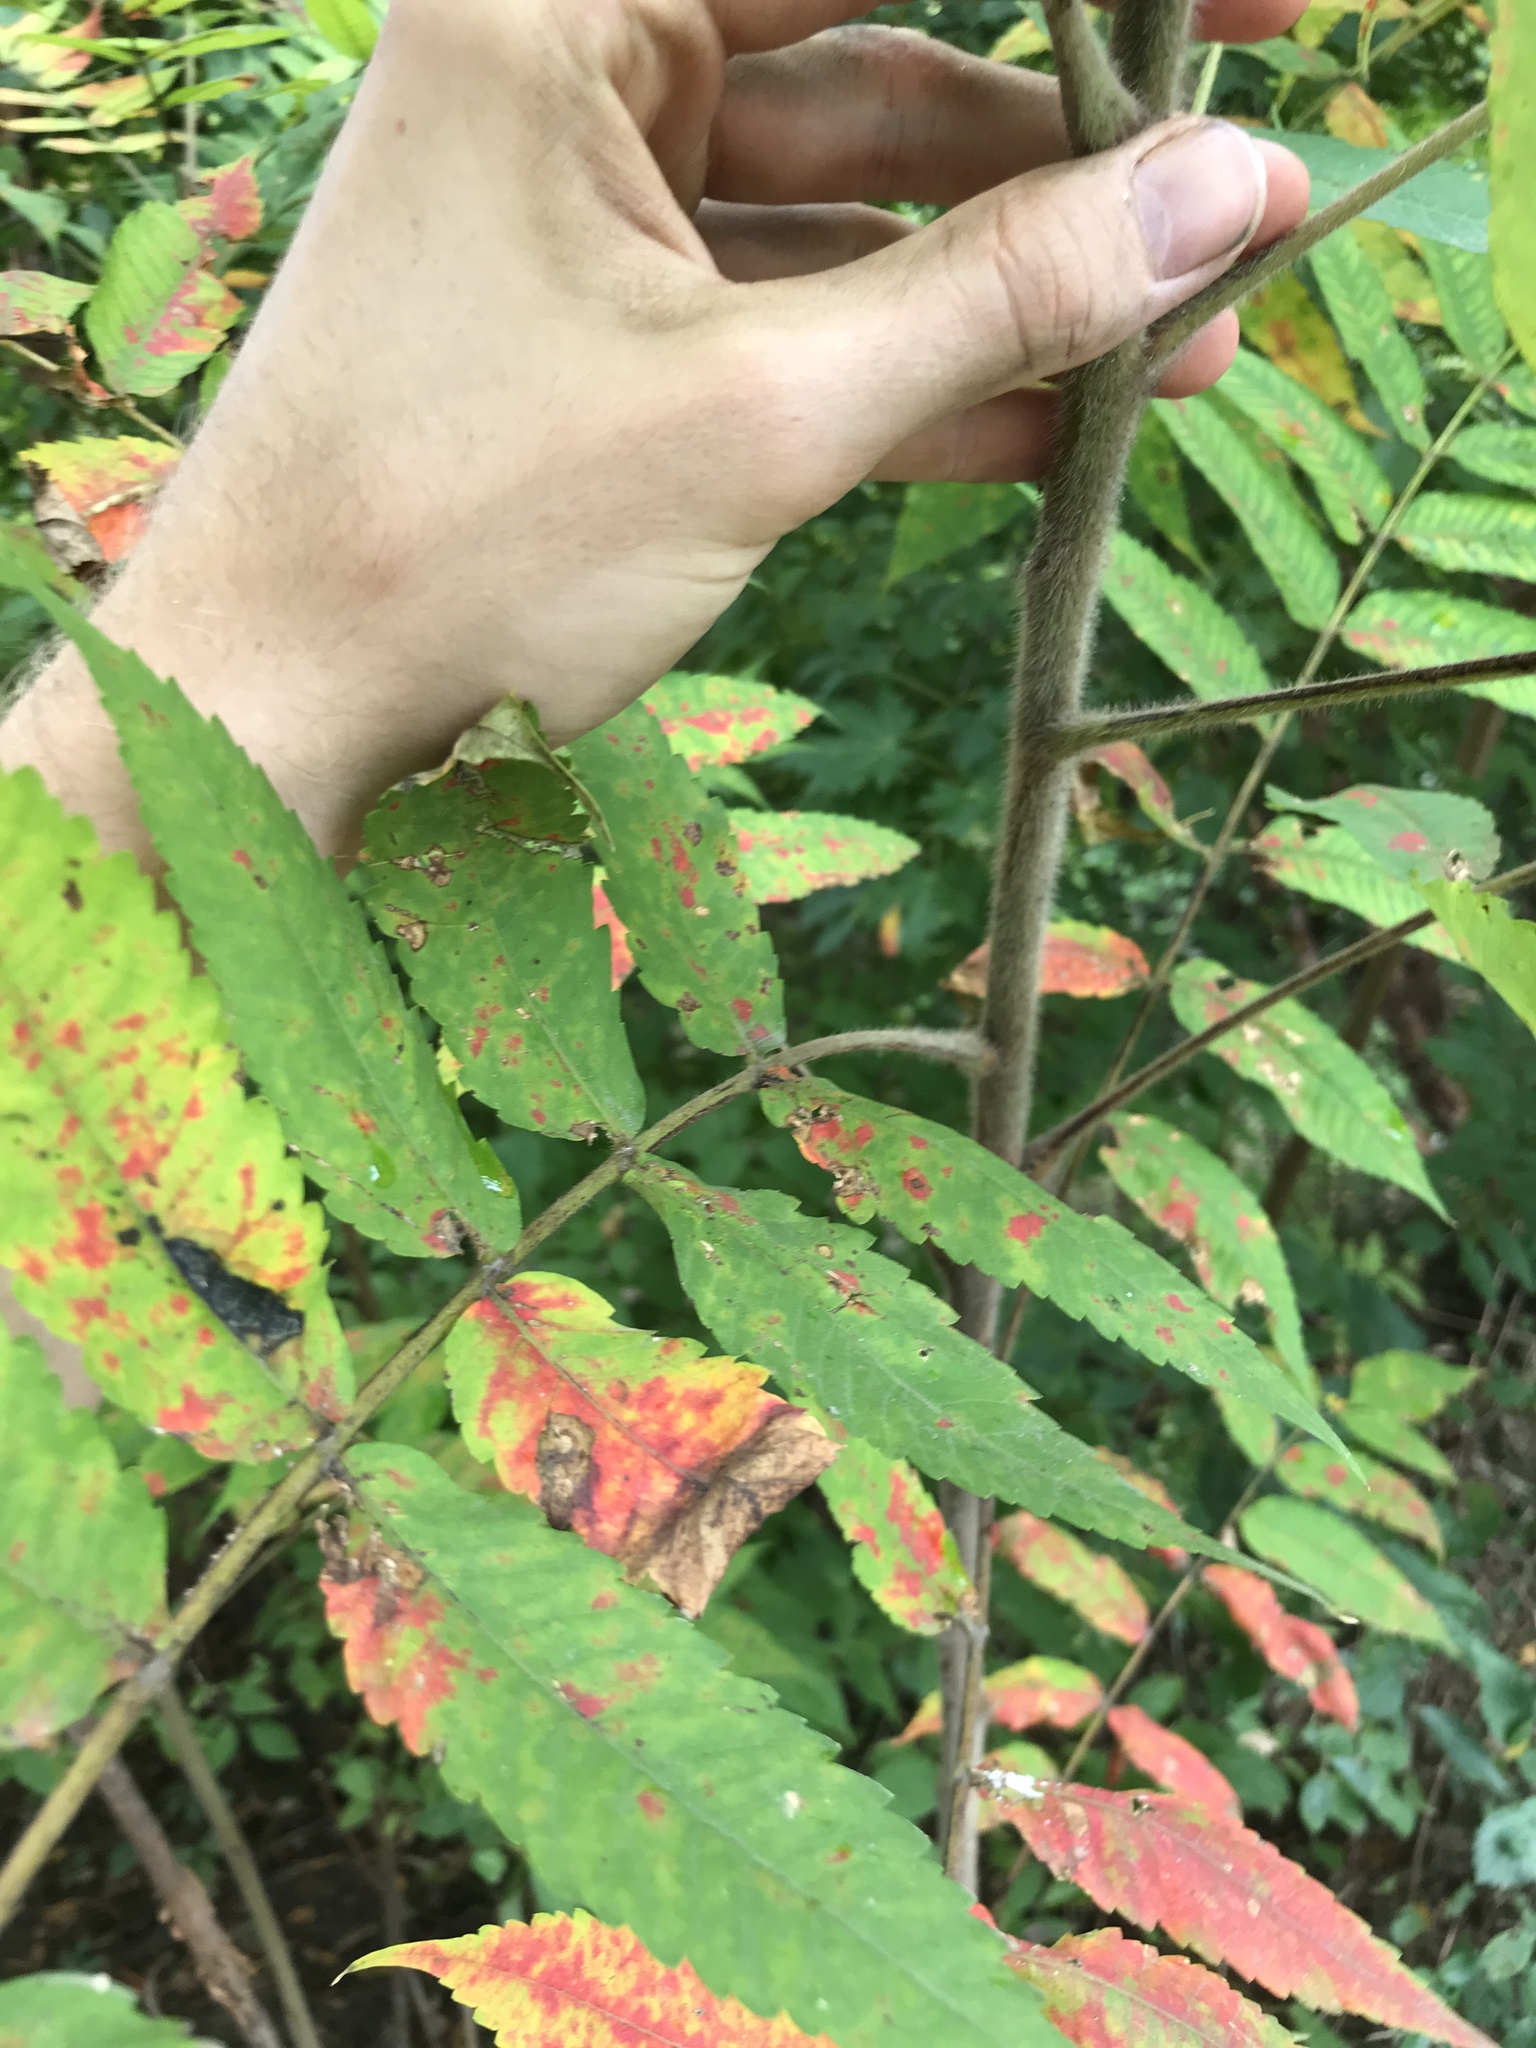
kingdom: Plantae
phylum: Tracheophyta
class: Magnoliopsida
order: Sapindales
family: Anacardiaceae
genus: Rhus
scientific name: Rhus typhina
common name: Staghorn sumac
